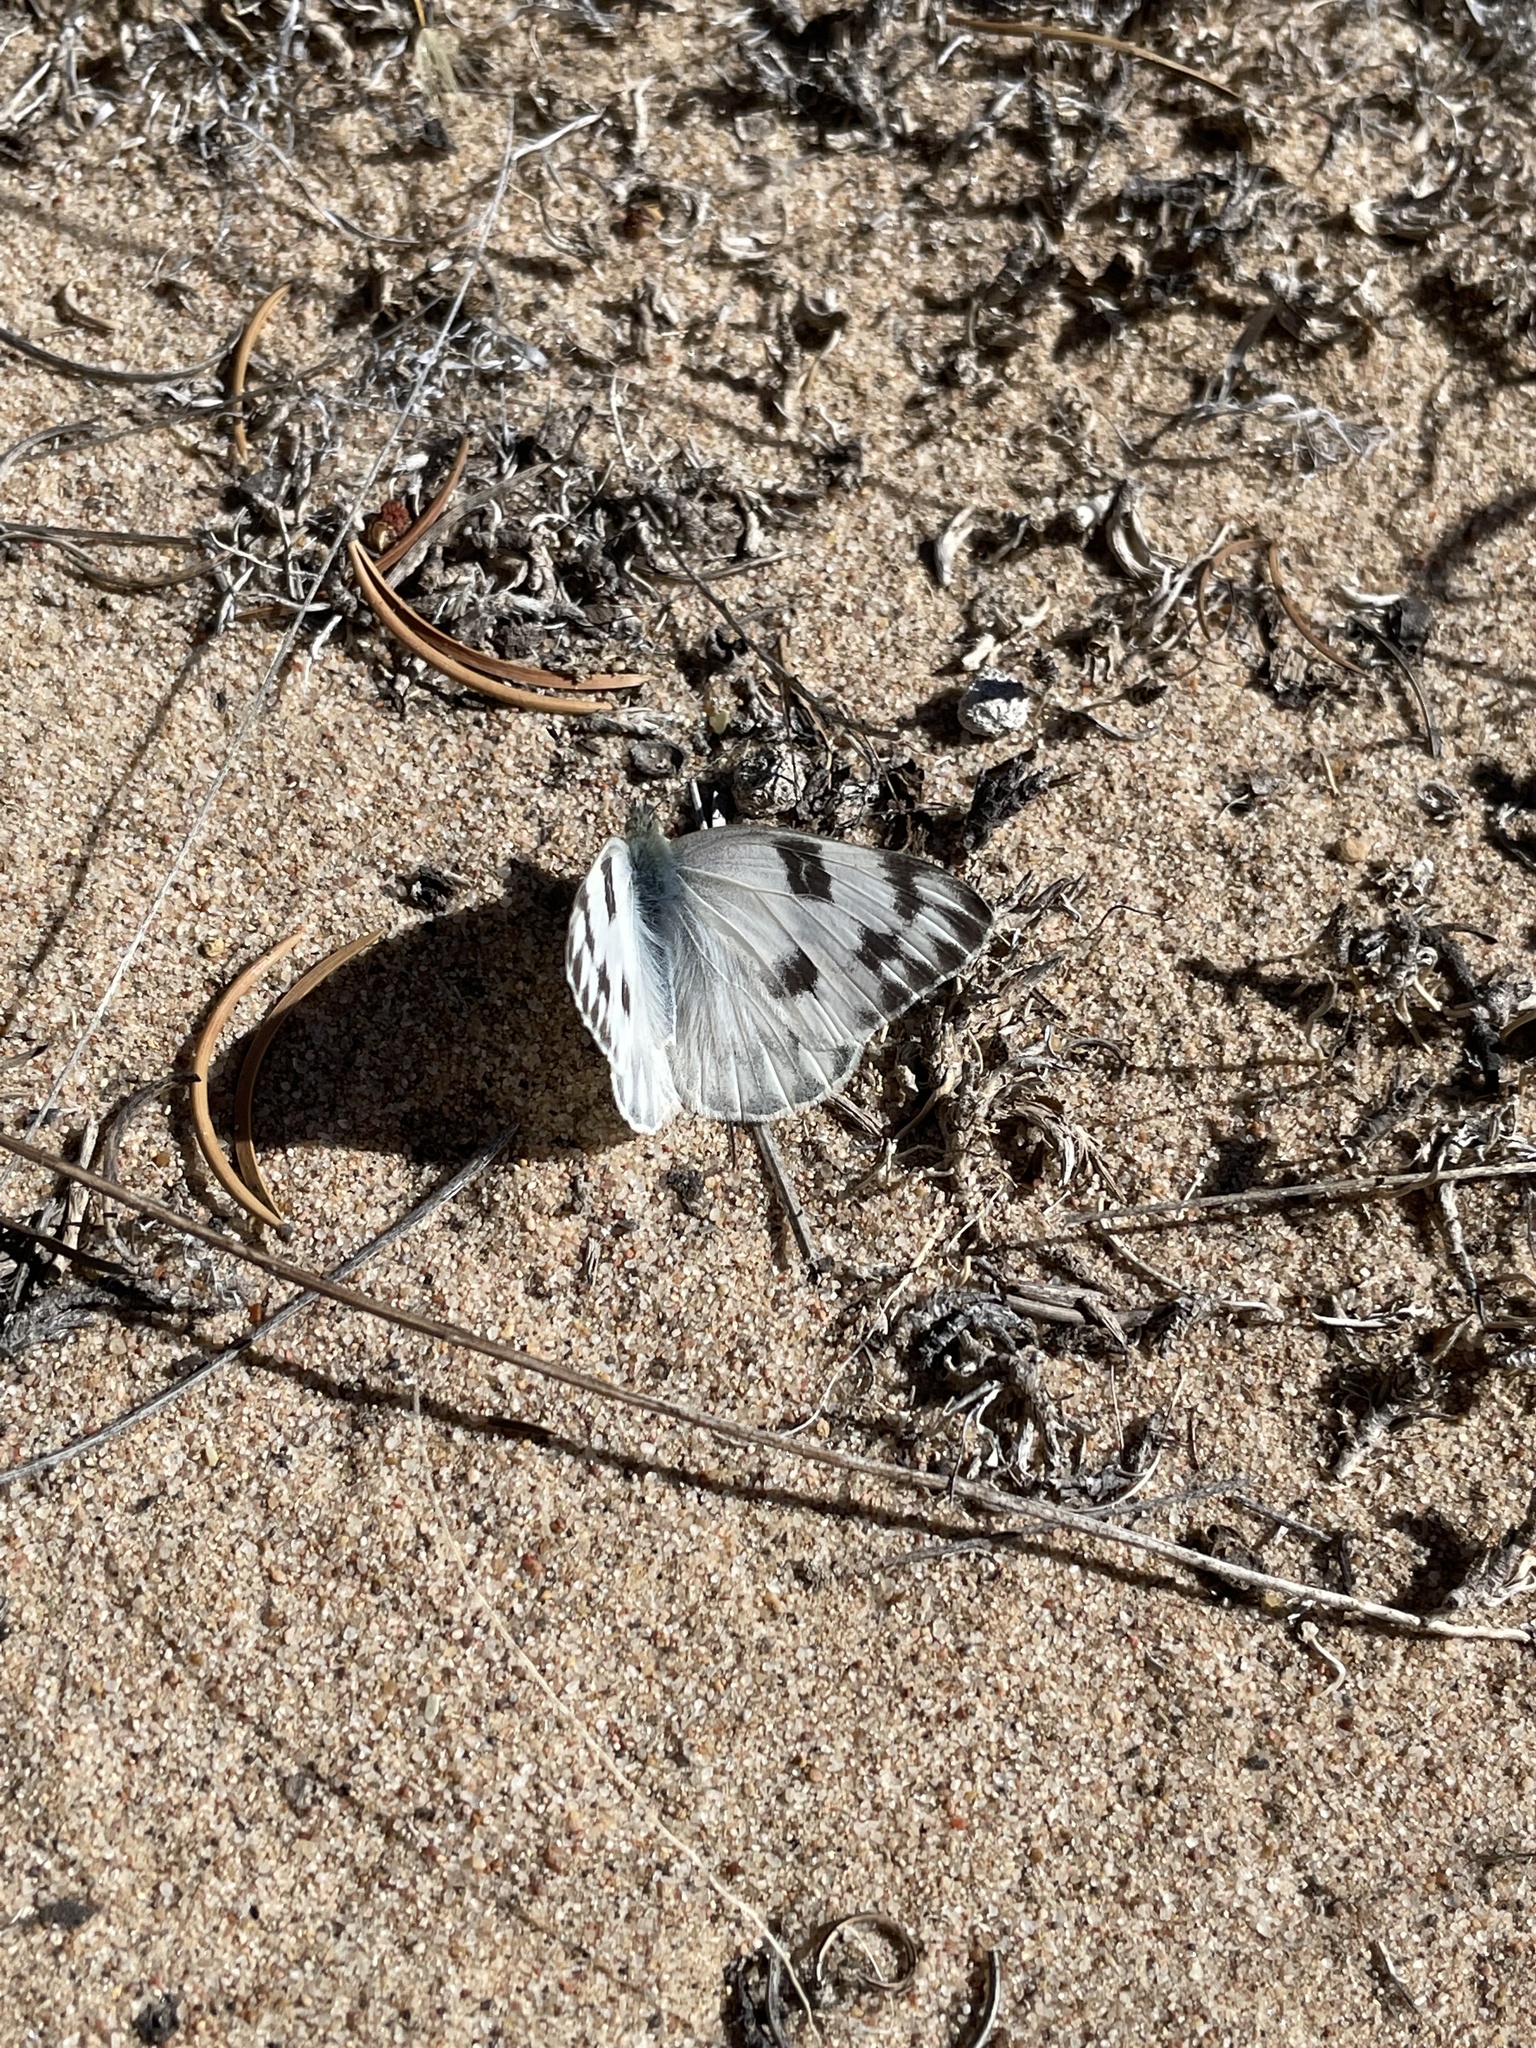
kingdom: Animalia
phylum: Arthropoda
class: Insecta
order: Lepidoptera
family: Pieridae
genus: Pontia
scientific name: Pontia protodice
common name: Checkered white
